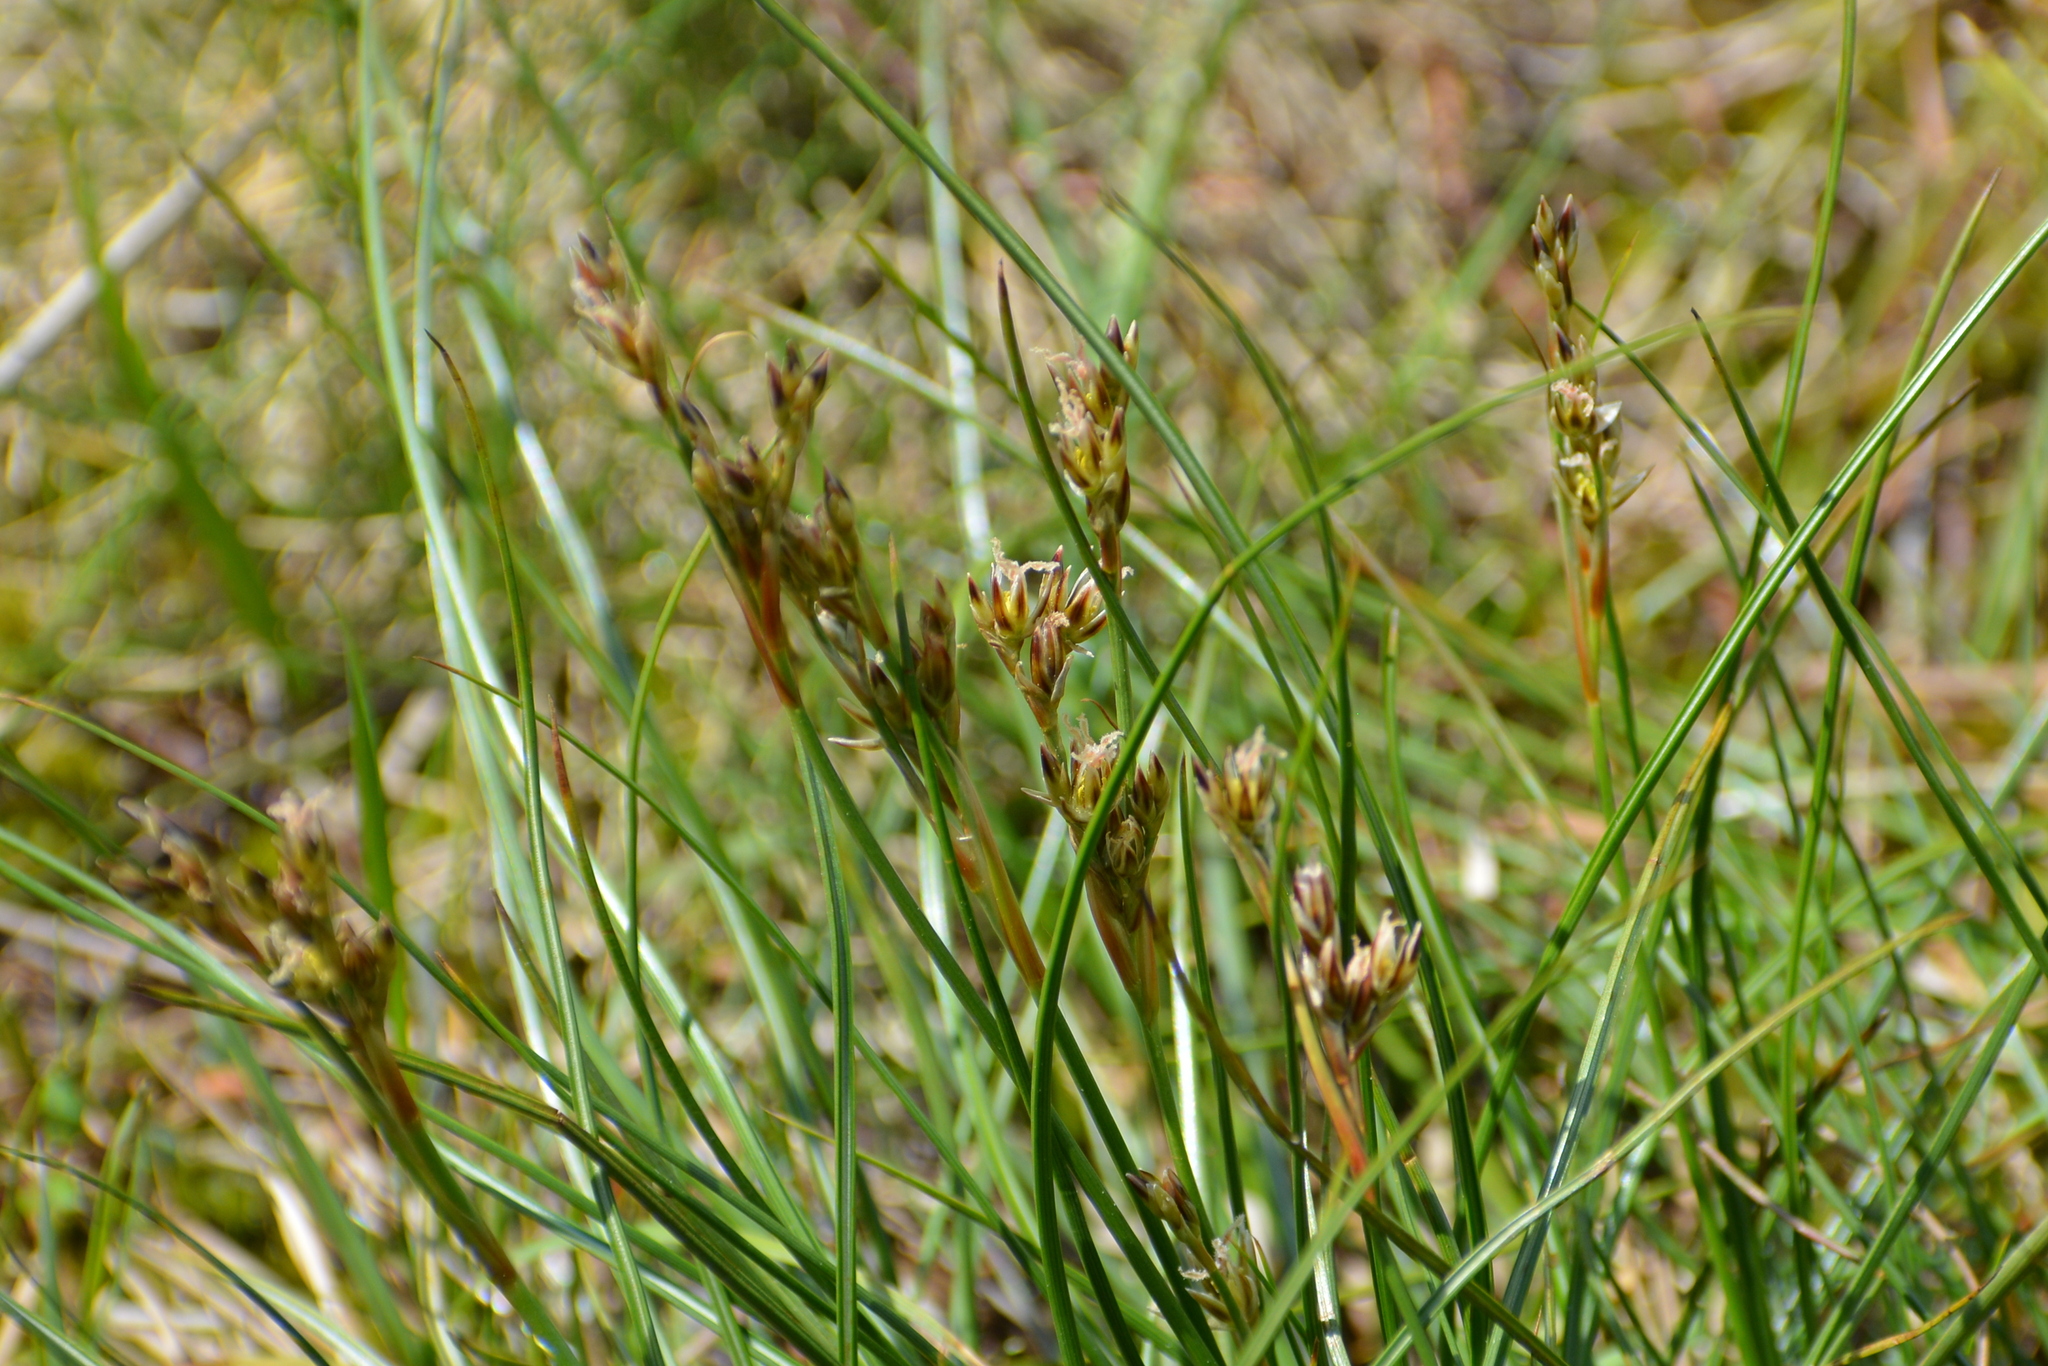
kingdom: Plantae
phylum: Tracheophyta
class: Liliopsida
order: Poales
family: Juncaceae
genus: Juncus
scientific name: Juncus squarrosus
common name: Heath rush
